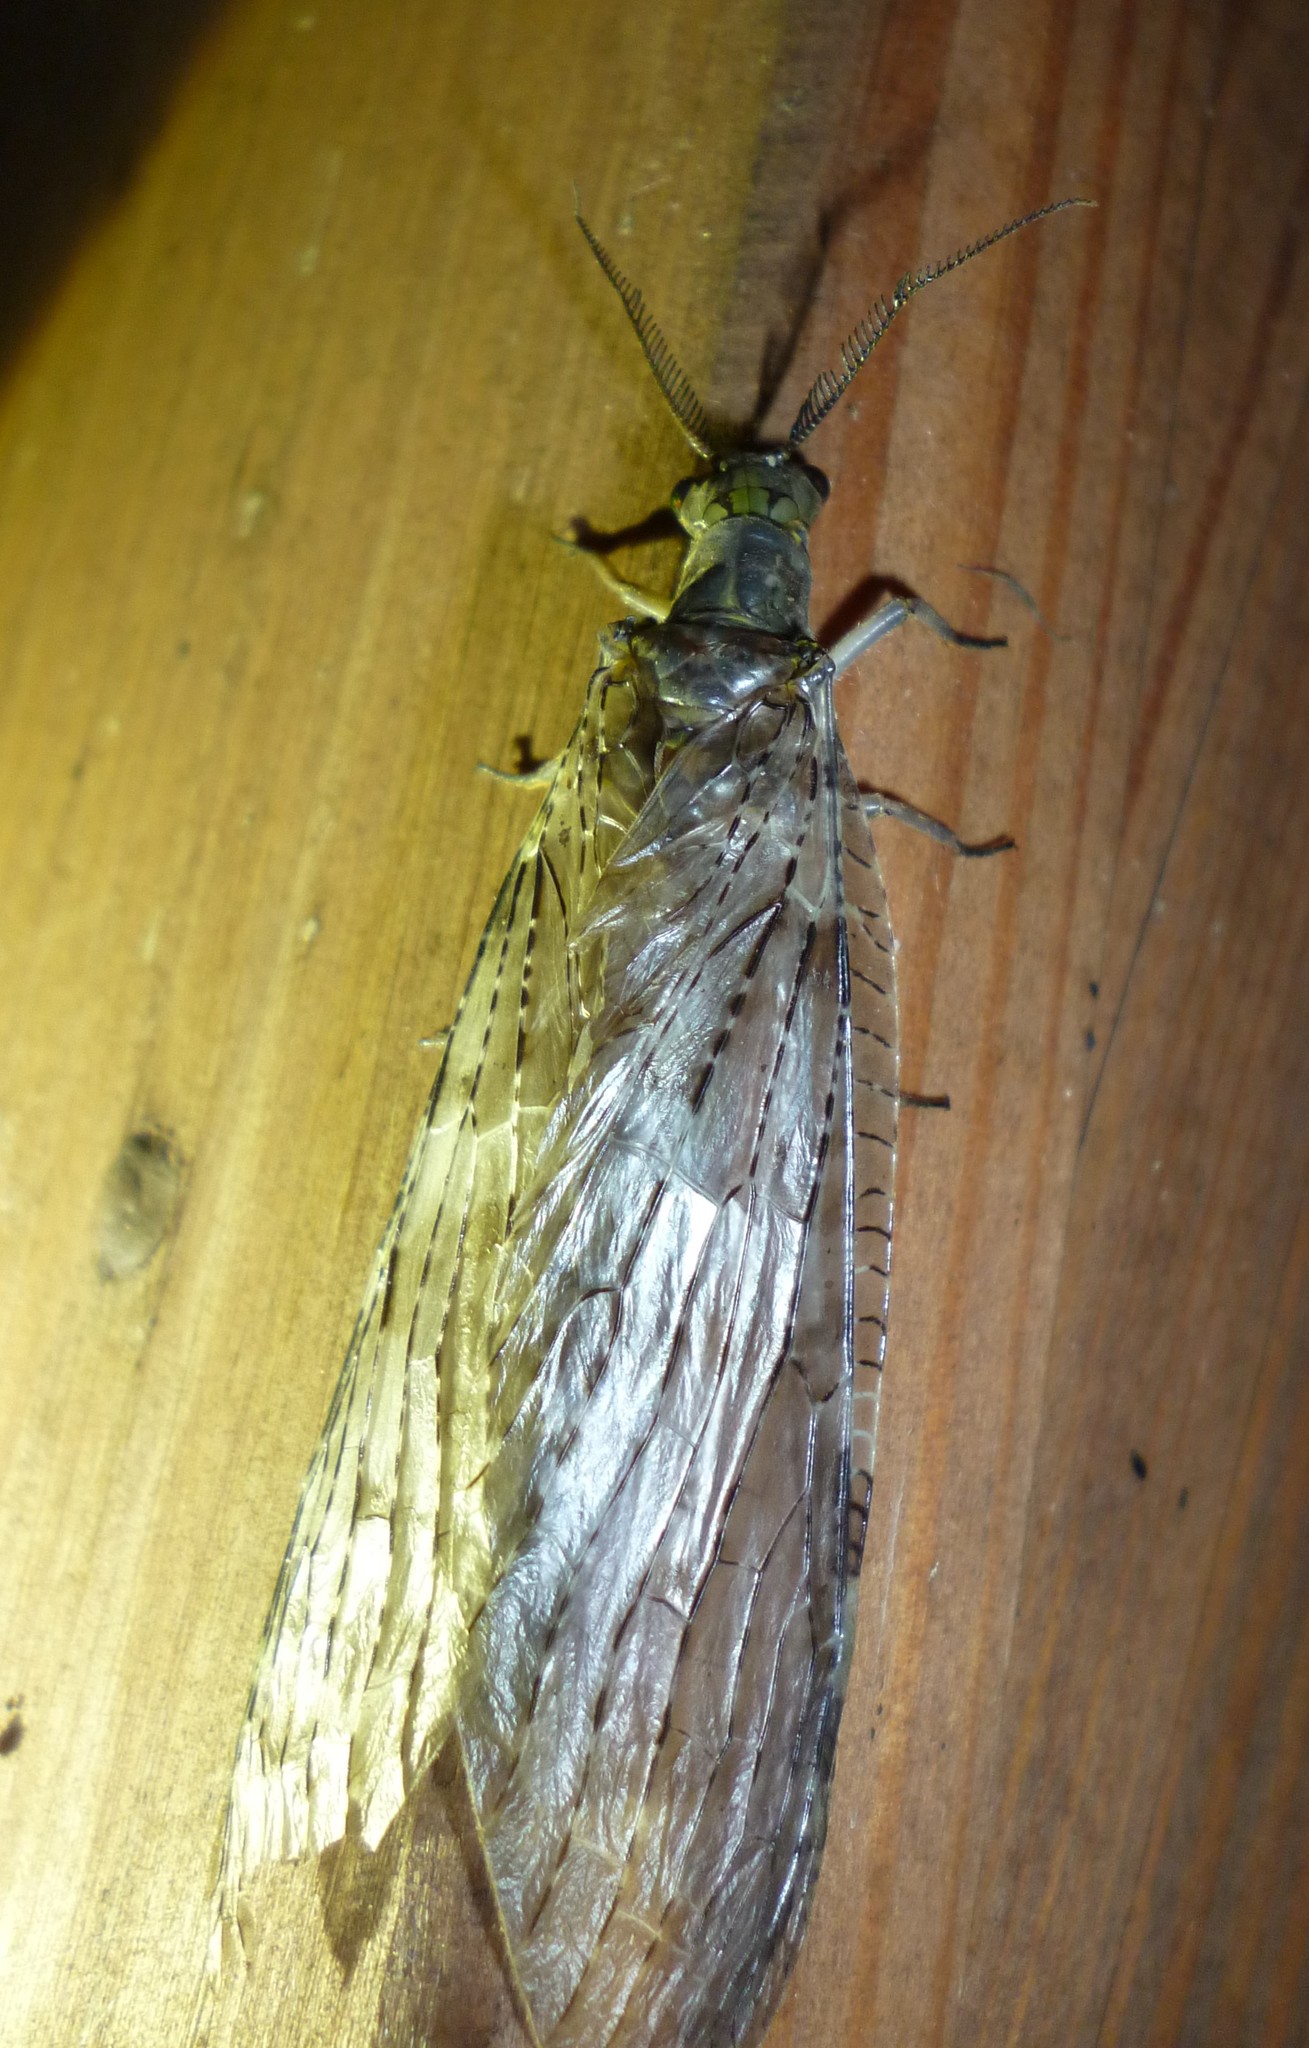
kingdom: Animalia
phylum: Arthropoda
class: Insecta
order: Megaloptera
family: Corydalidae
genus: Chauliodes
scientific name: Chauliodes pectinicornis
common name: Summer fishfly
